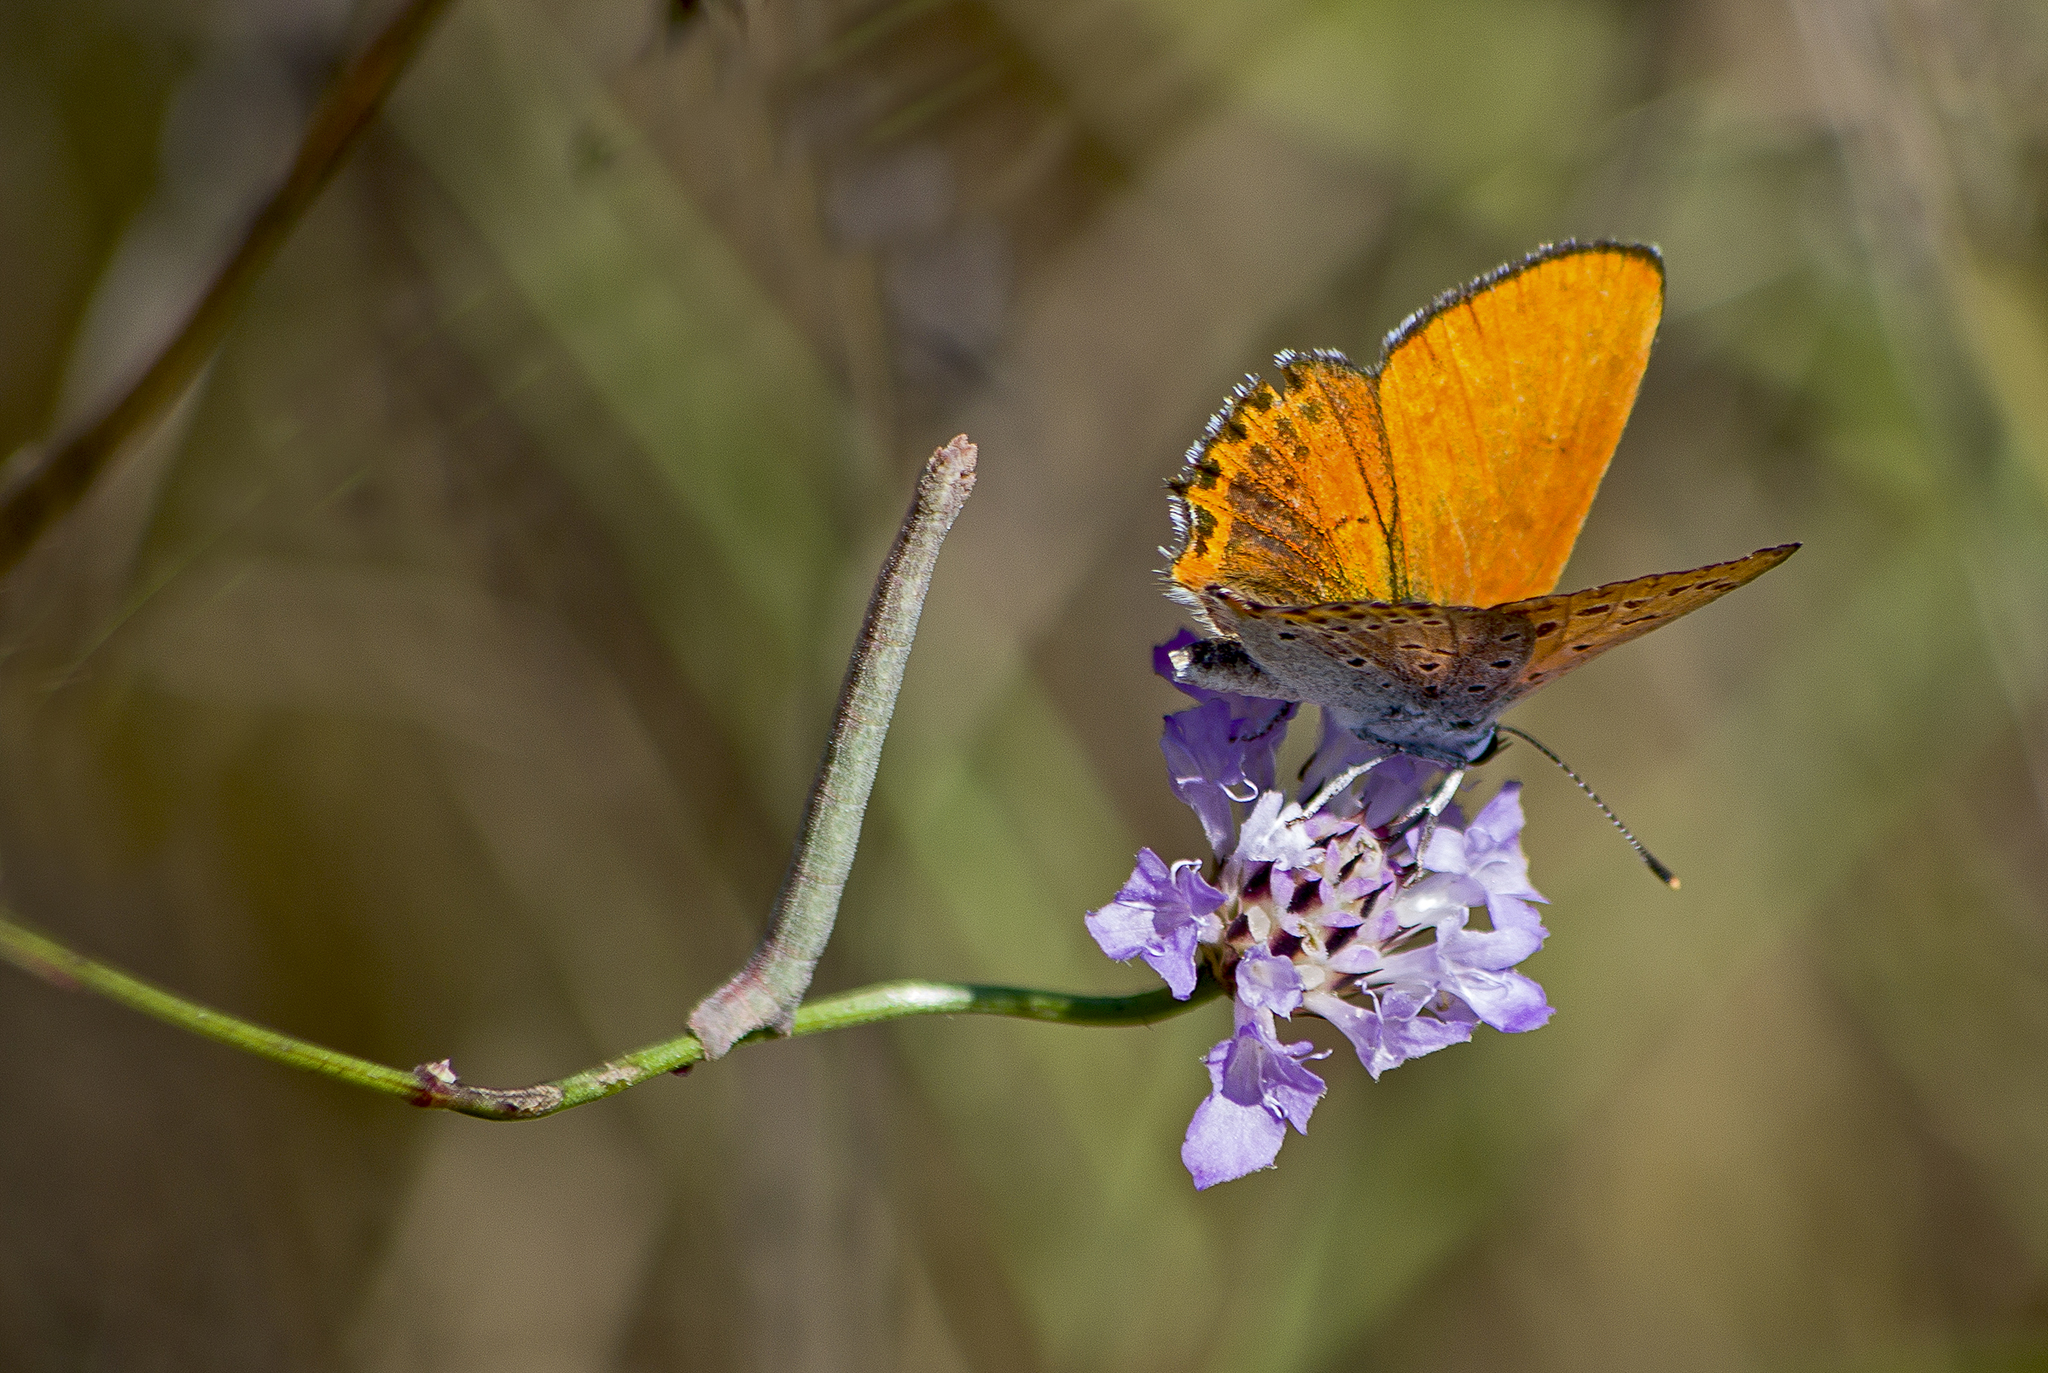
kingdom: Animalia
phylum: Arthropoda
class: Insecta
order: Lepidoptera
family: Lycaenidae
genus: Thersamonia
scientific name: Thersamonia thersamon
